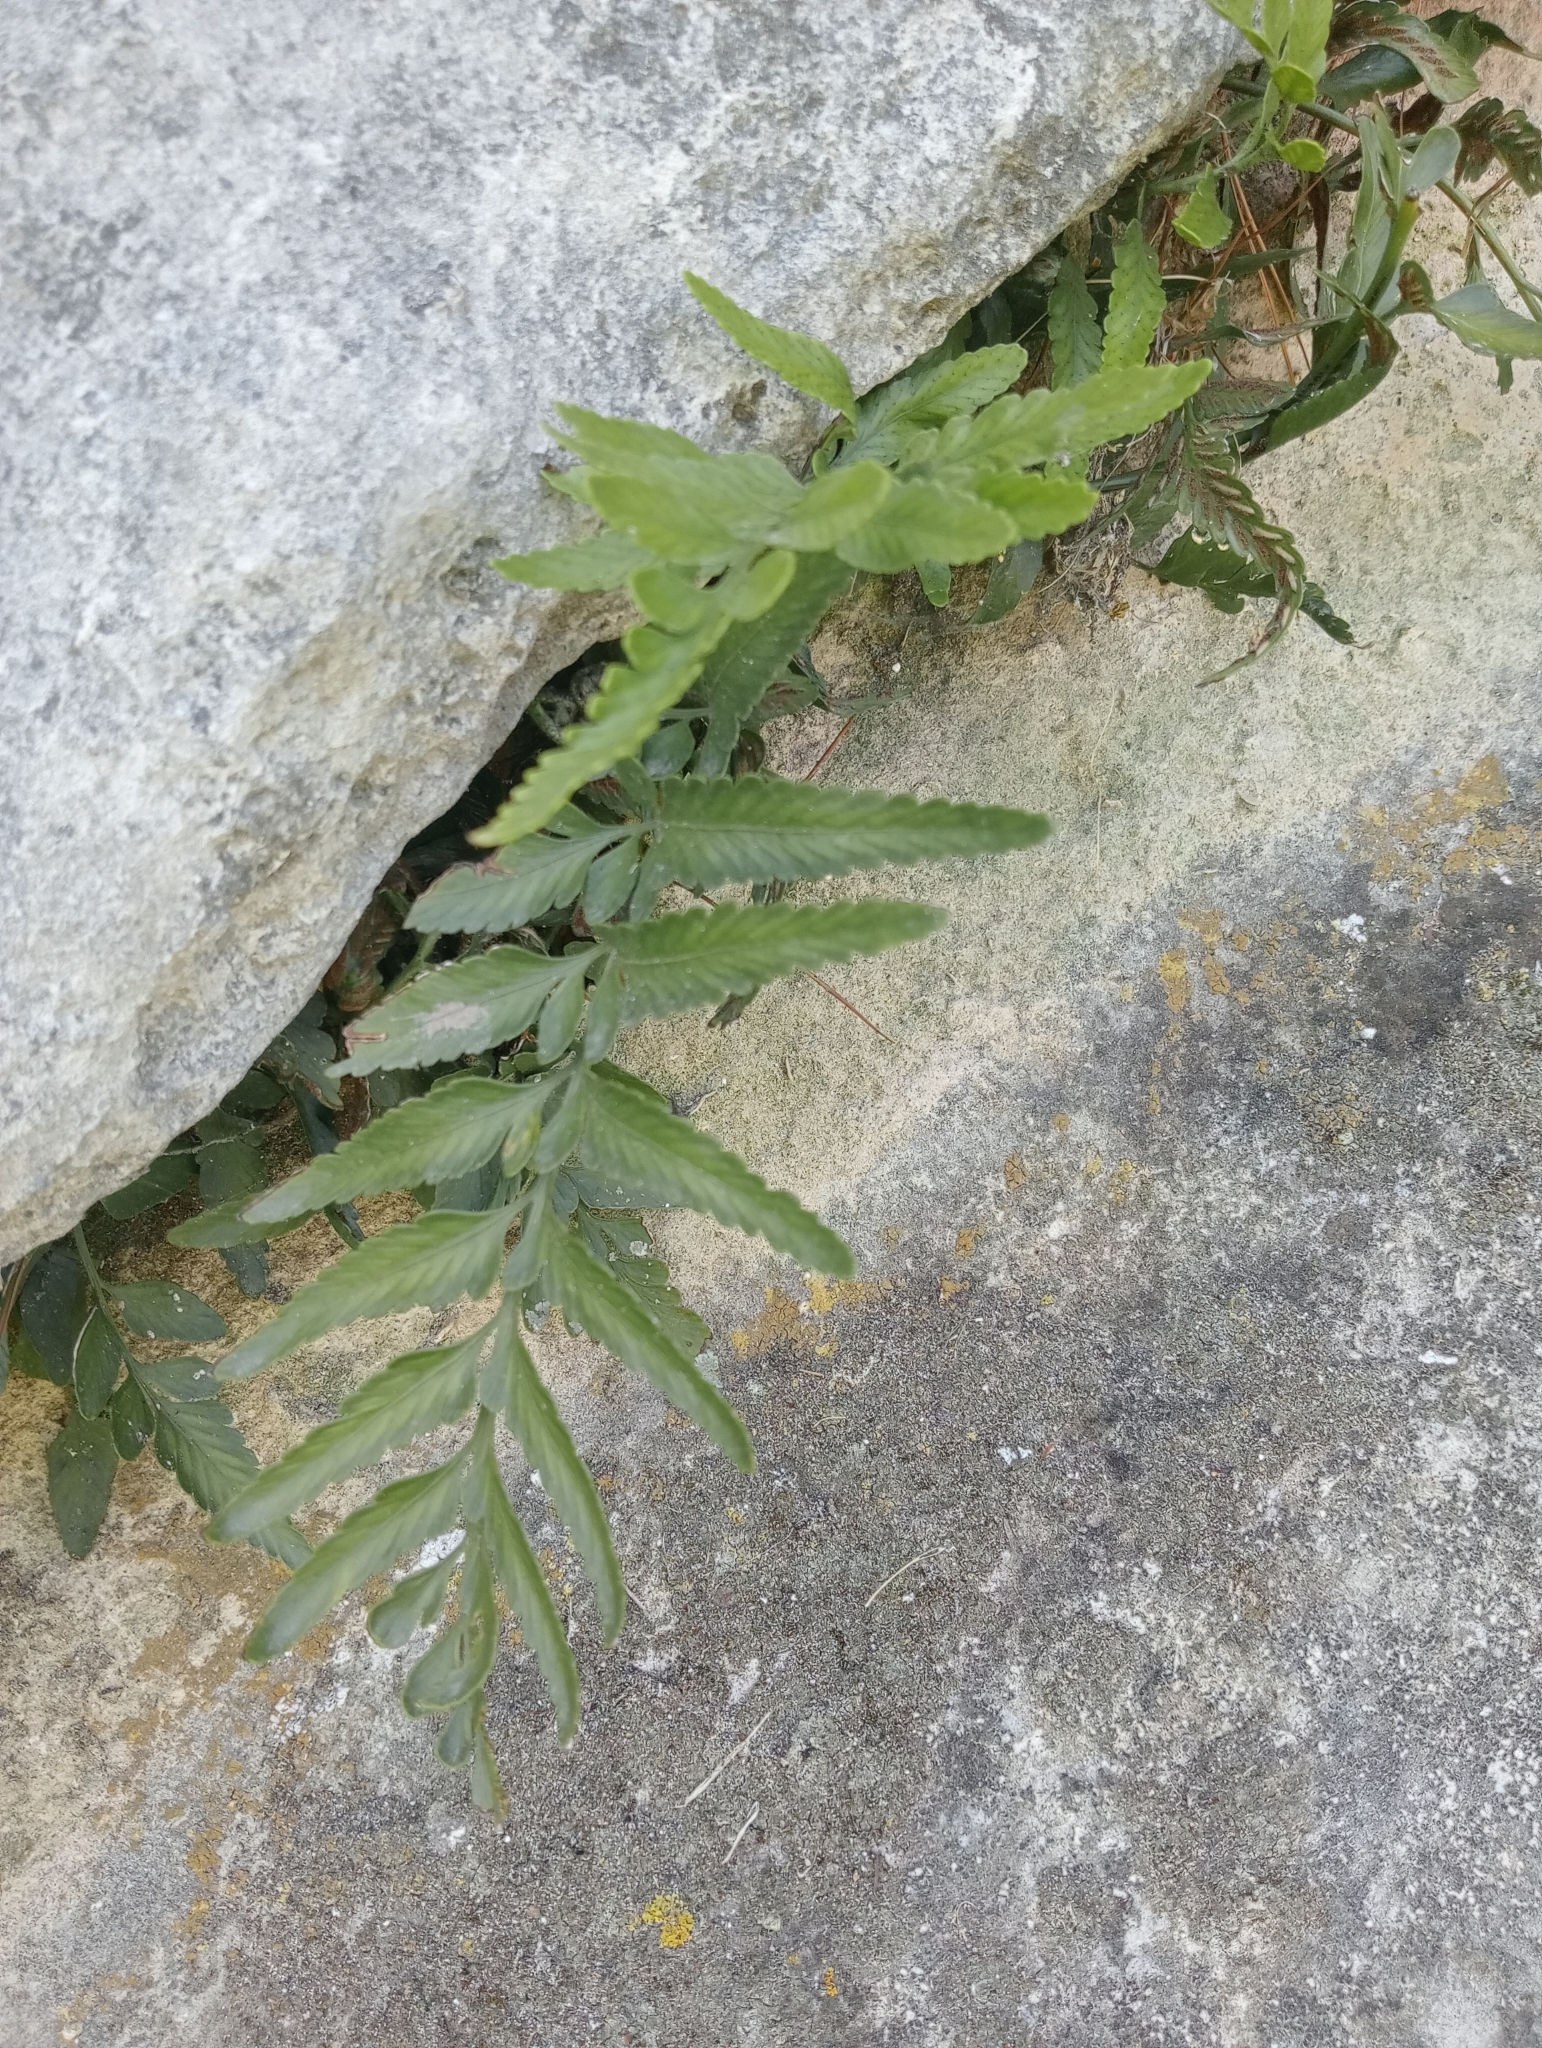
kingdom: Plantae
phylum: Tracheophyta
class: Polypodiopsida
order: Polypodiales
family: Aspleniaceae
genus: Asplenium
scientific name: Asplenium lyallii
